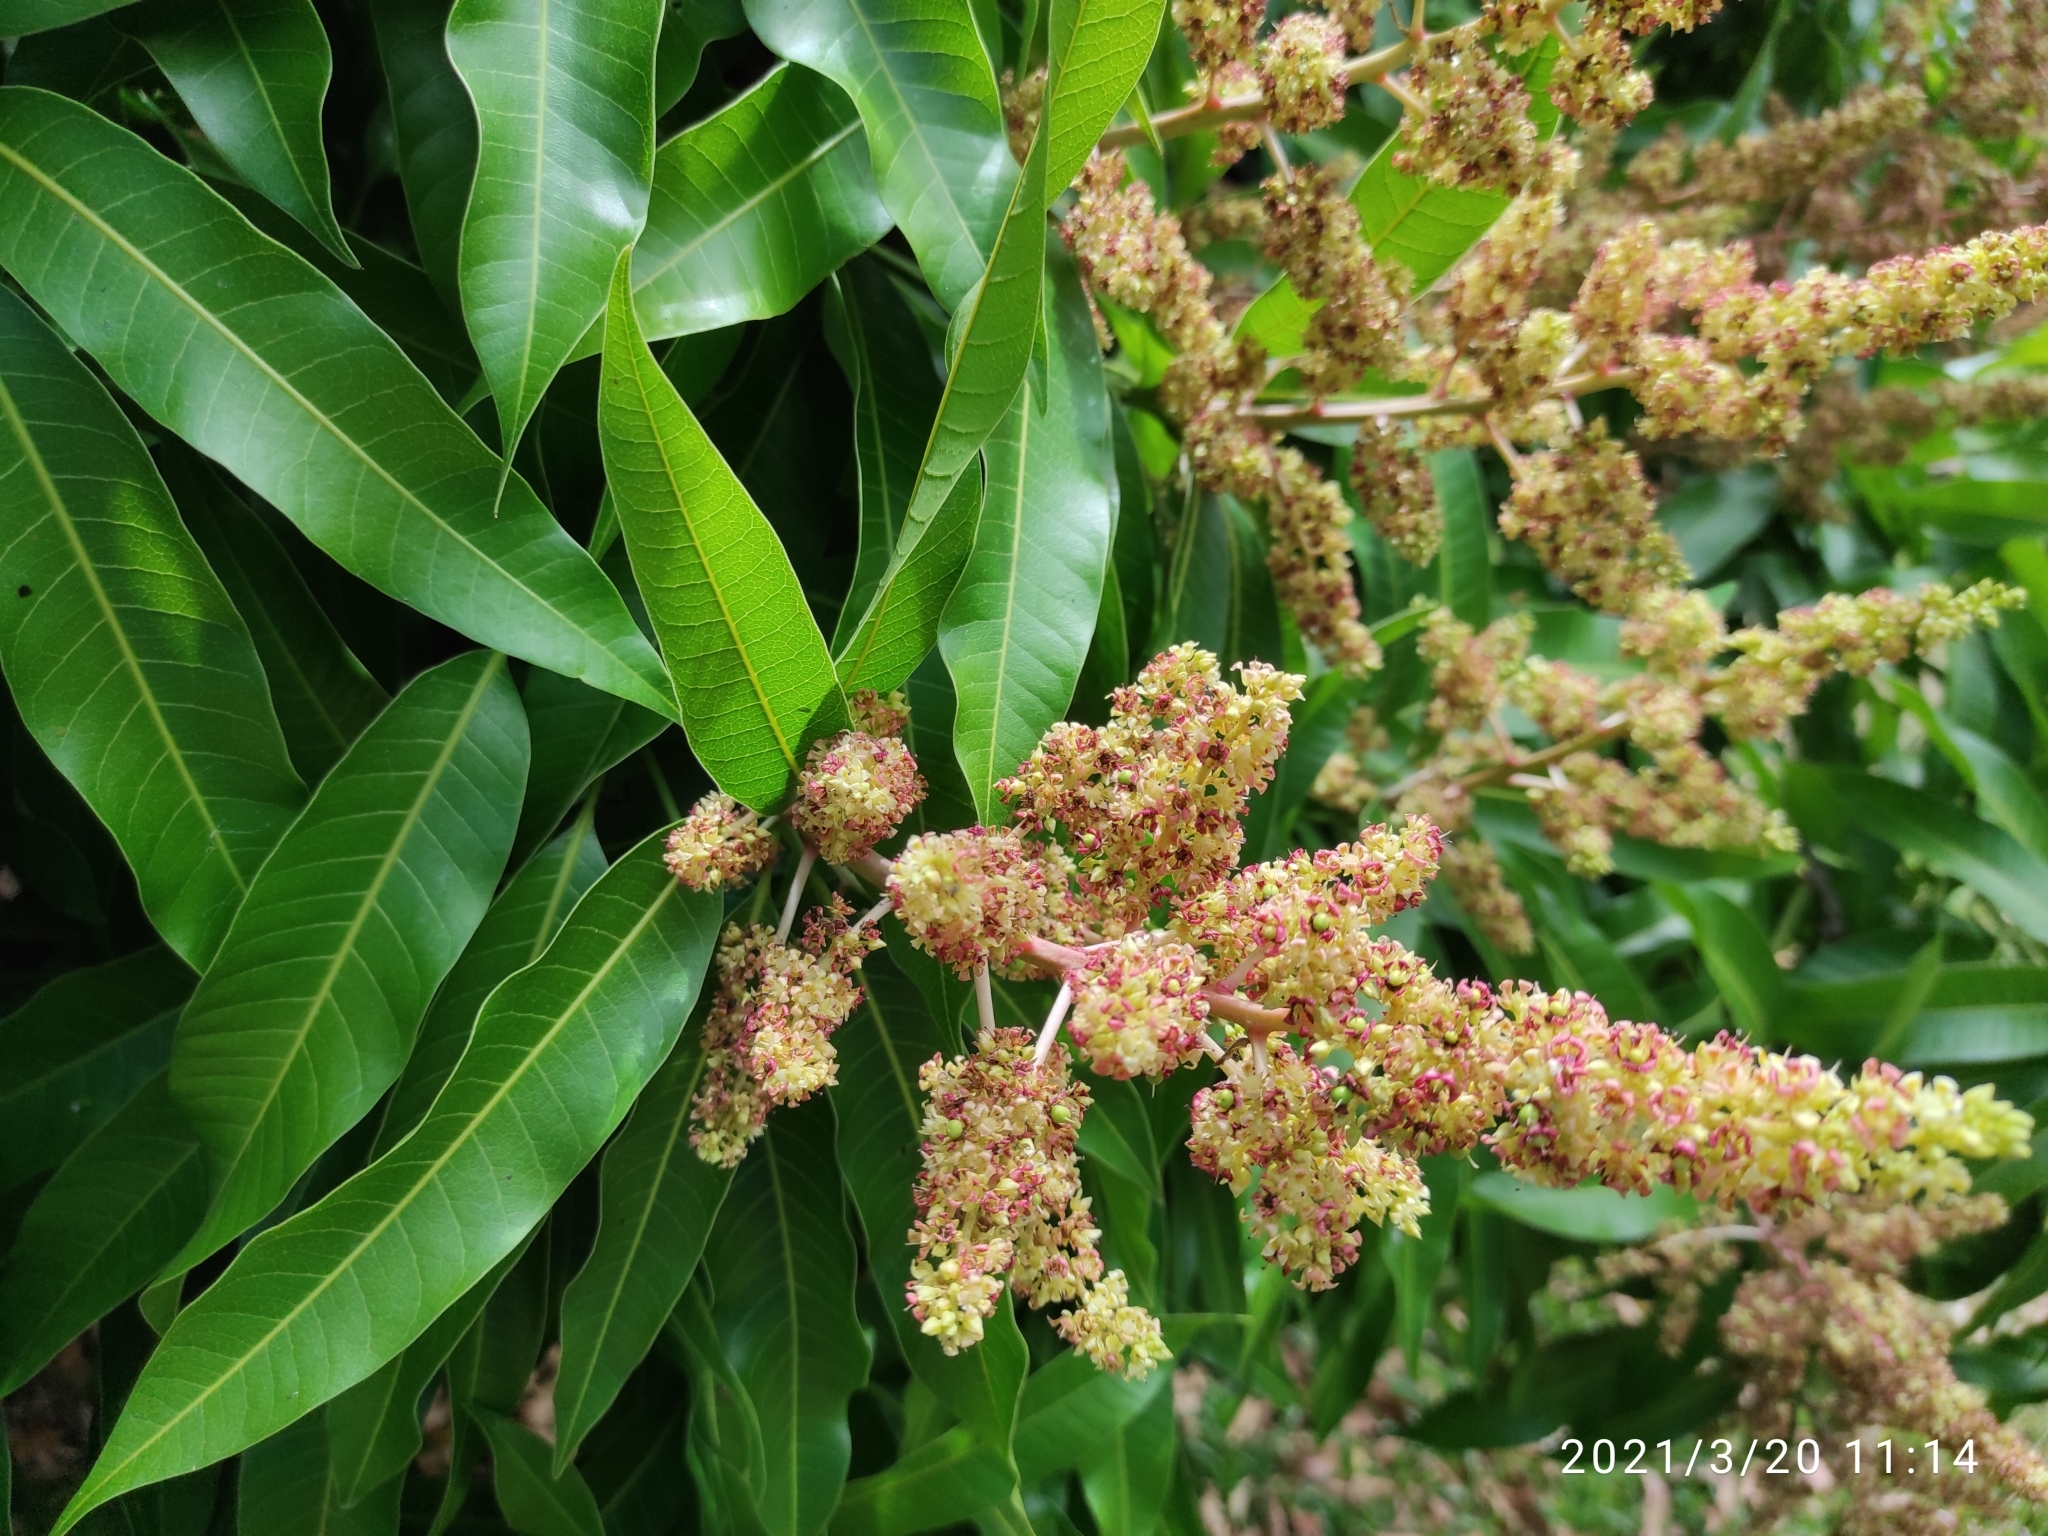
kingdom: Plantae
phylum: Tracheophyta
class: Magnoliopsida
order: Sapindales
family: Anacardiaceae
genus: Mangifera
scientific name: Mangifera indica
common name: Mango
